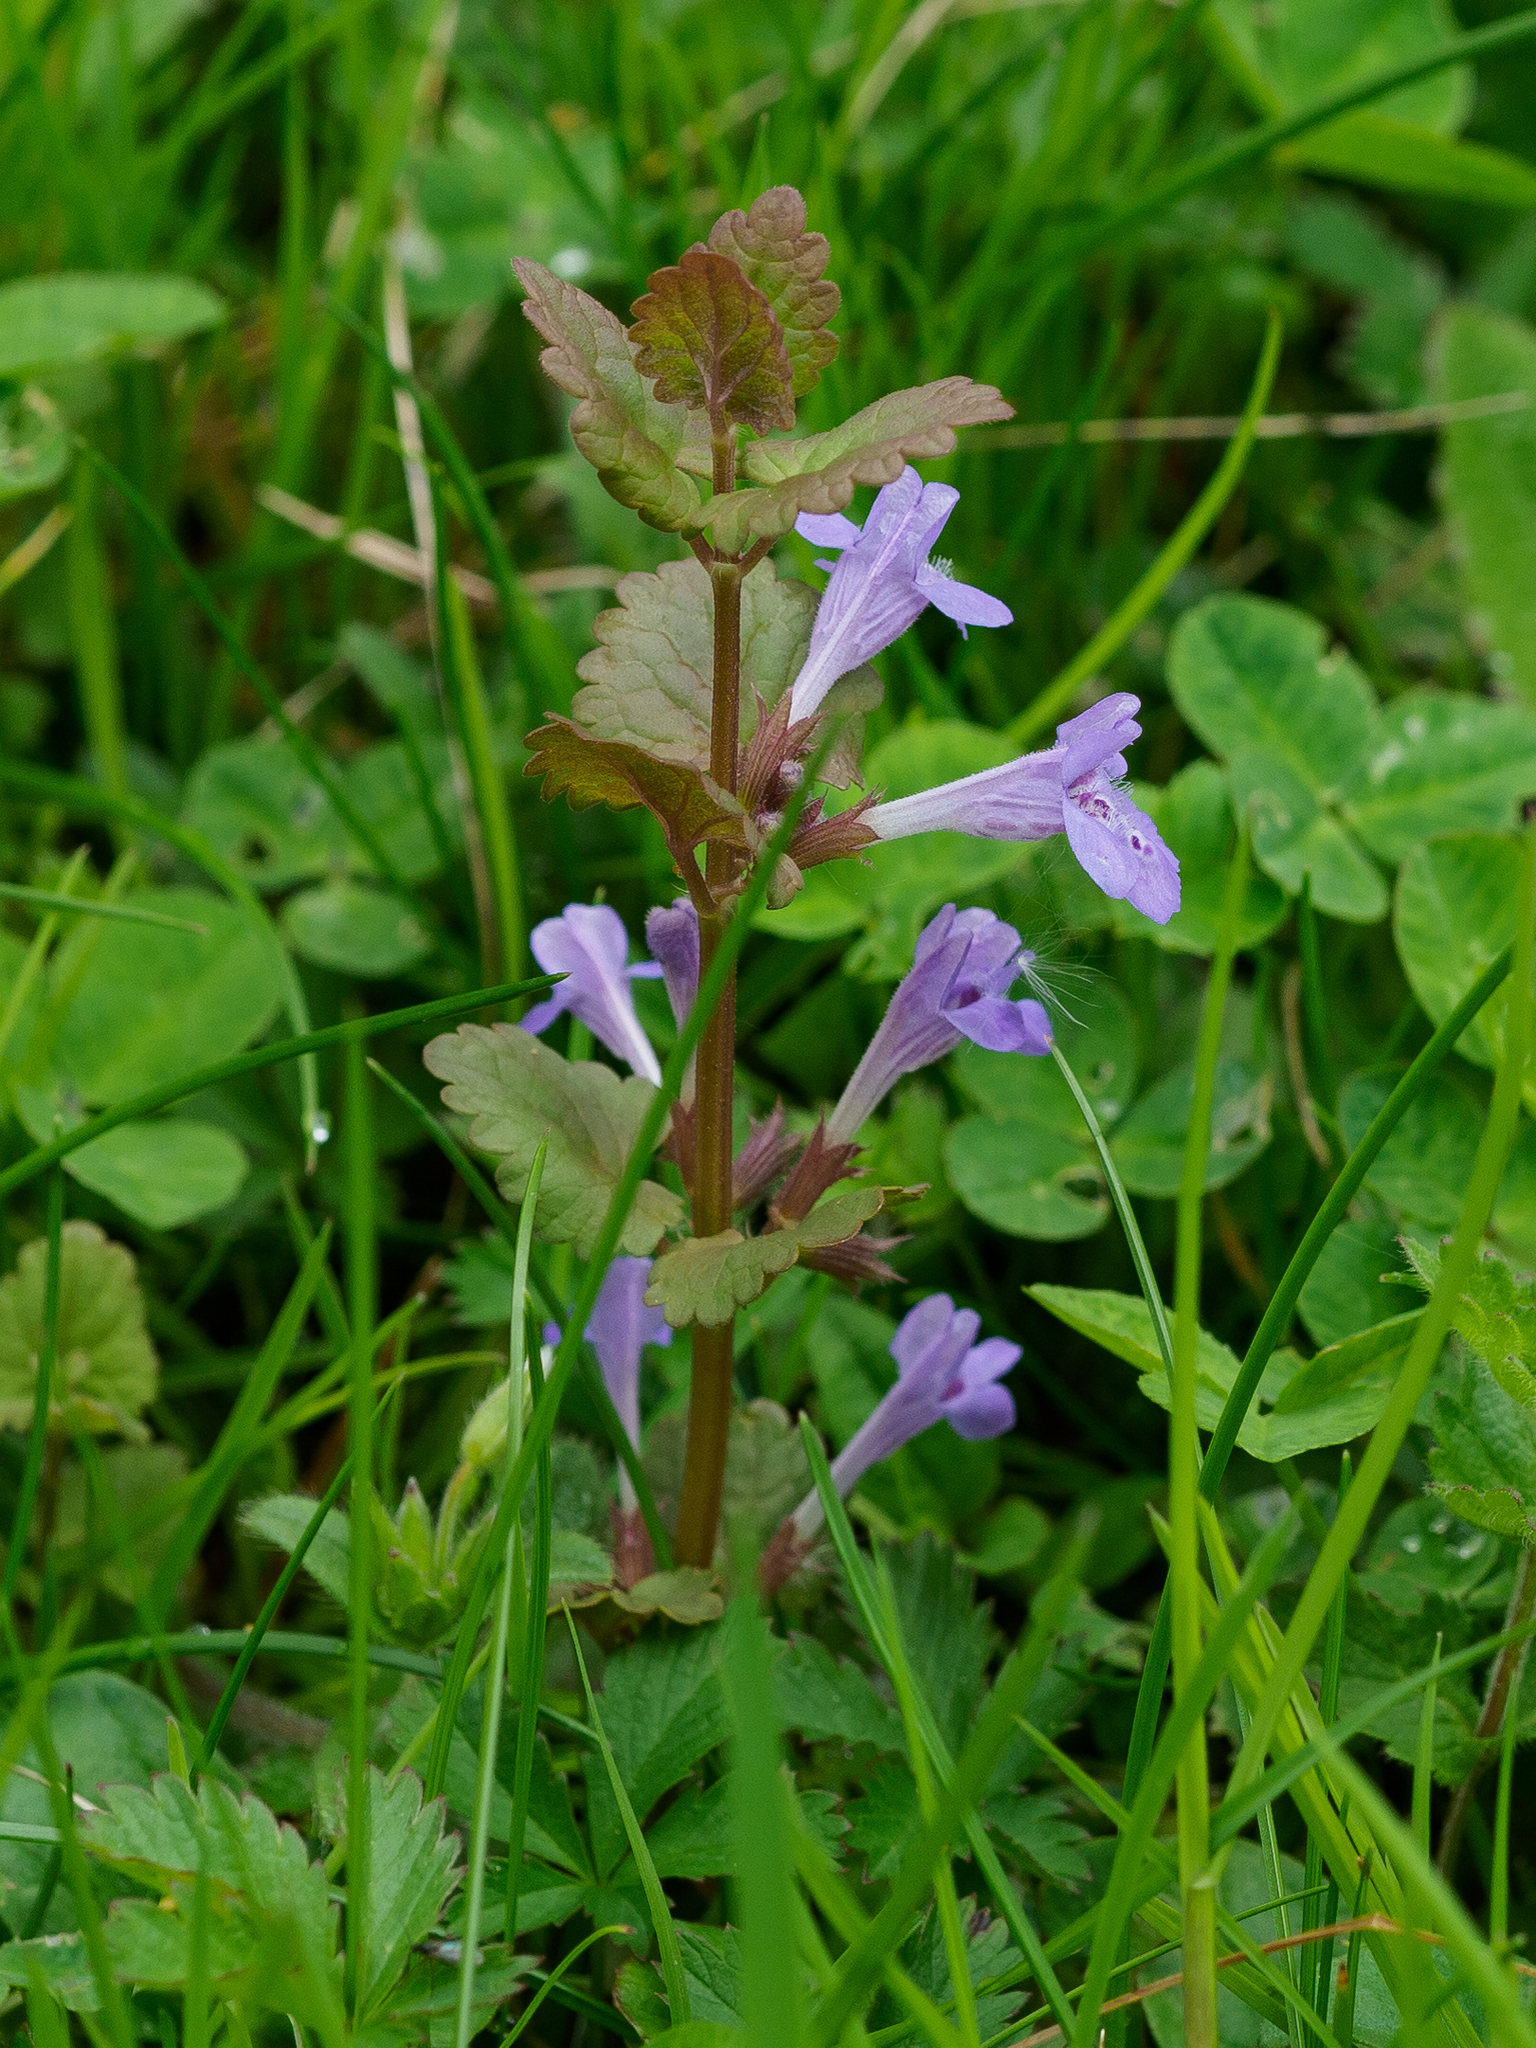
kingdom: Plantae
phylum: Tracheophyta
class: Magnoliopsida
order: Lamiales
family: Lamiaceae
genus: Glechoma
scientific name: Glechoma hederacea
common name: Ground ivy
